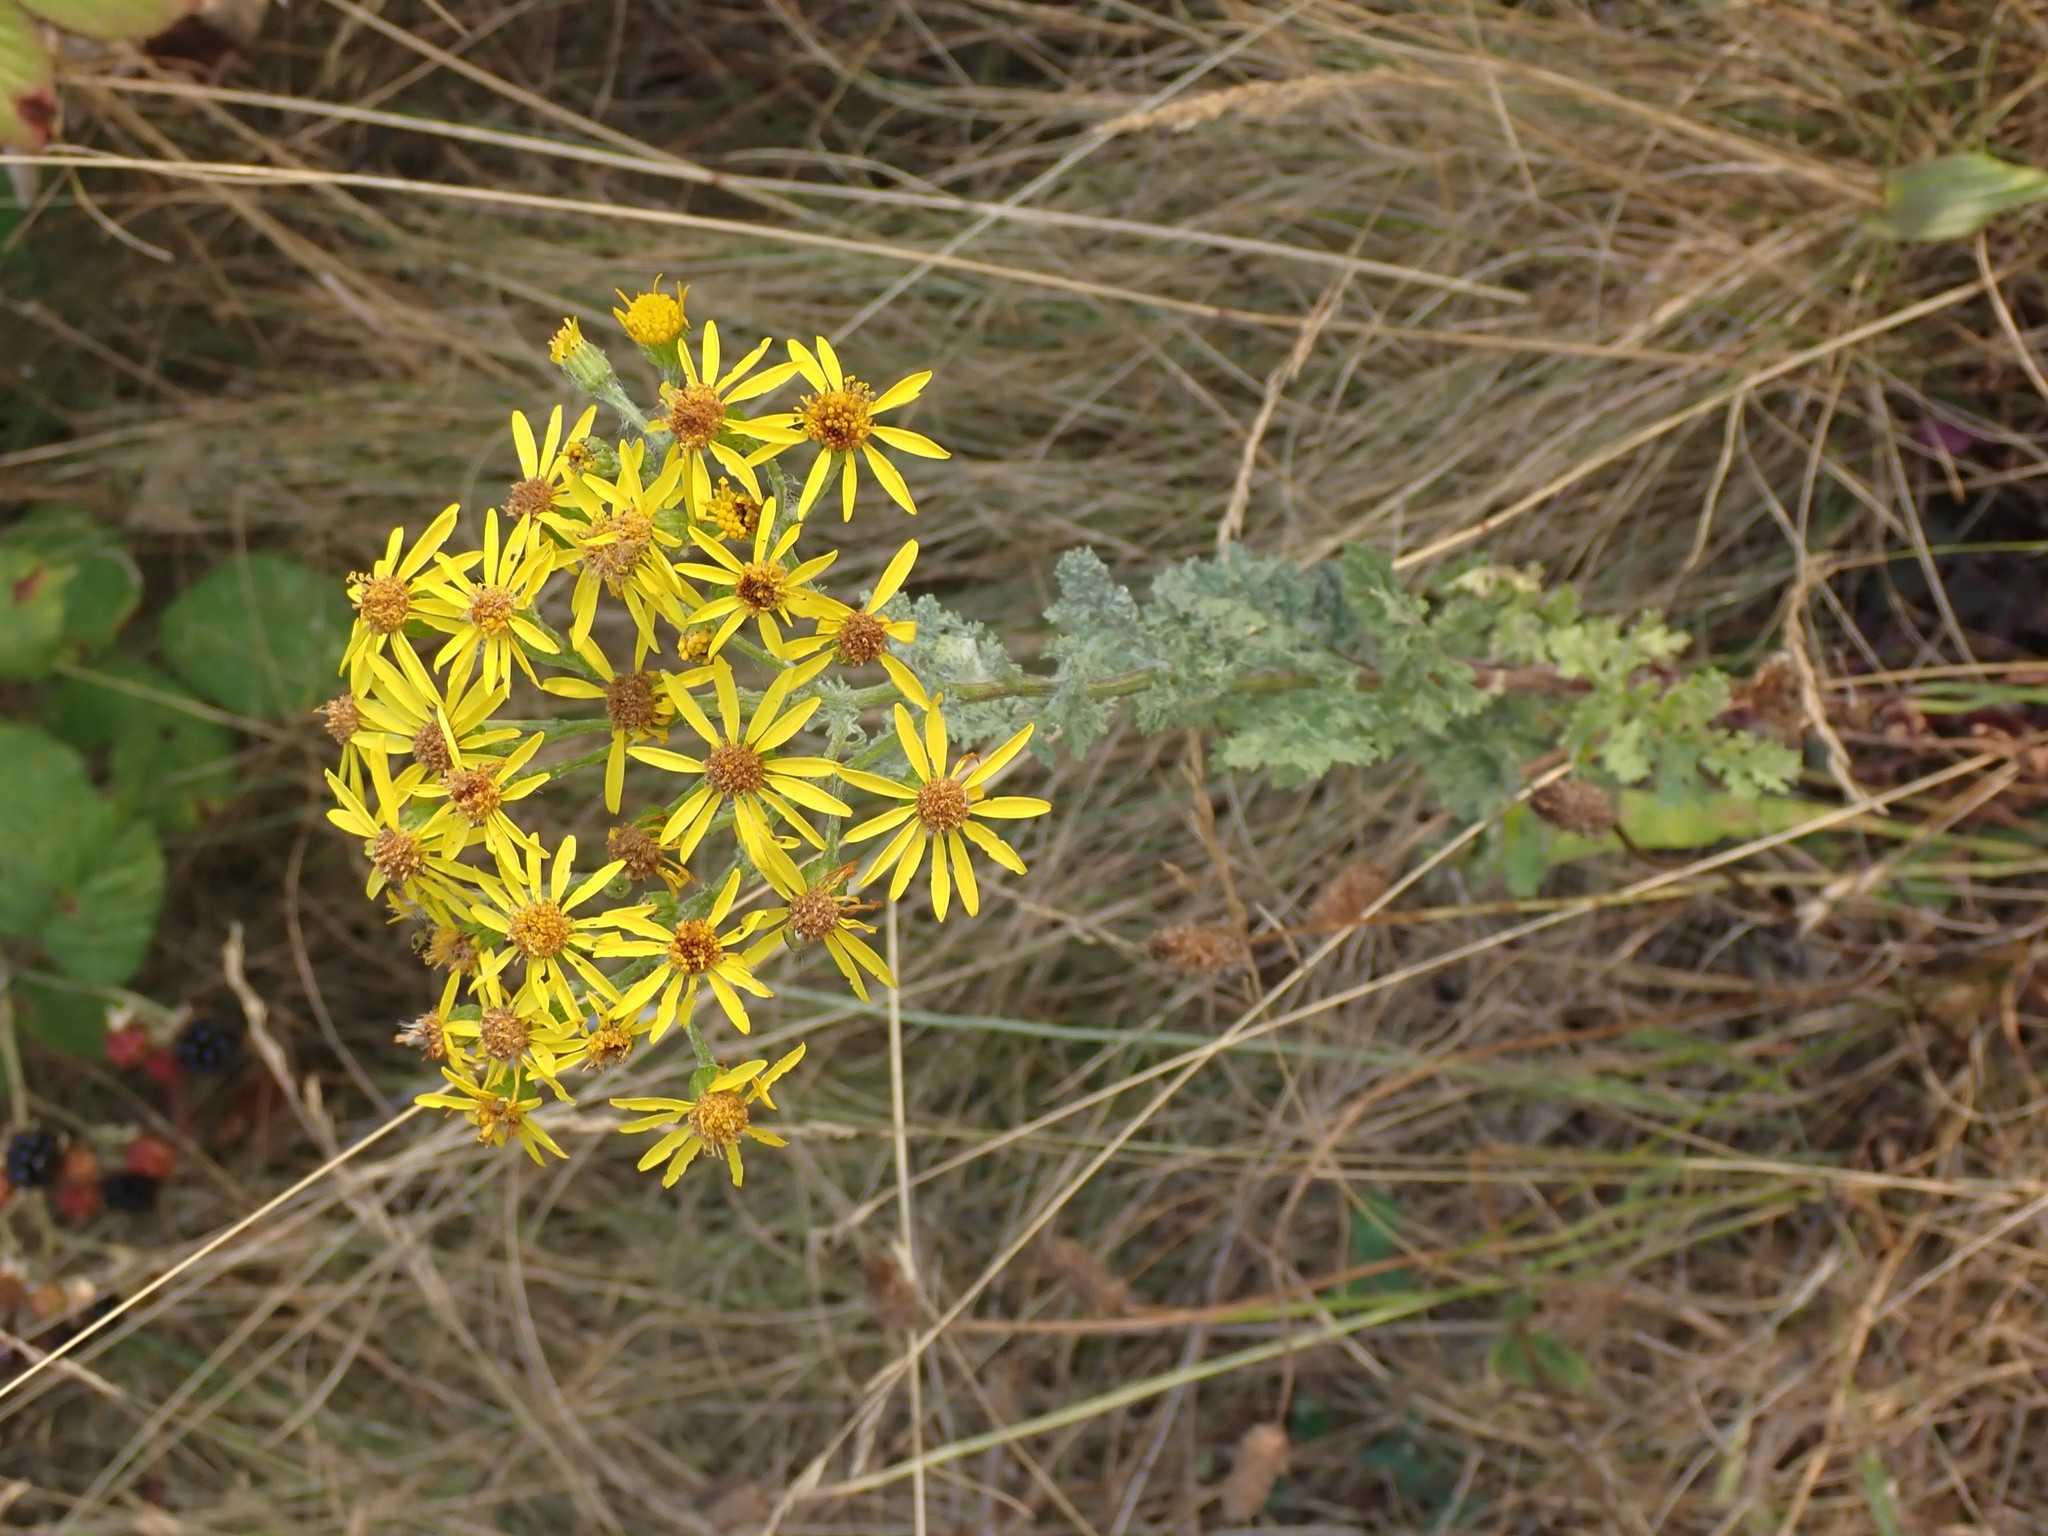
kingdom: Plantae
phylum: Tracheophyta
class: Magnoliopsida
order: Asterales
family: Asteraceae
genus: Jacobaea
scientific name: Jacobaea vulgaris
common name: Stinking willie
